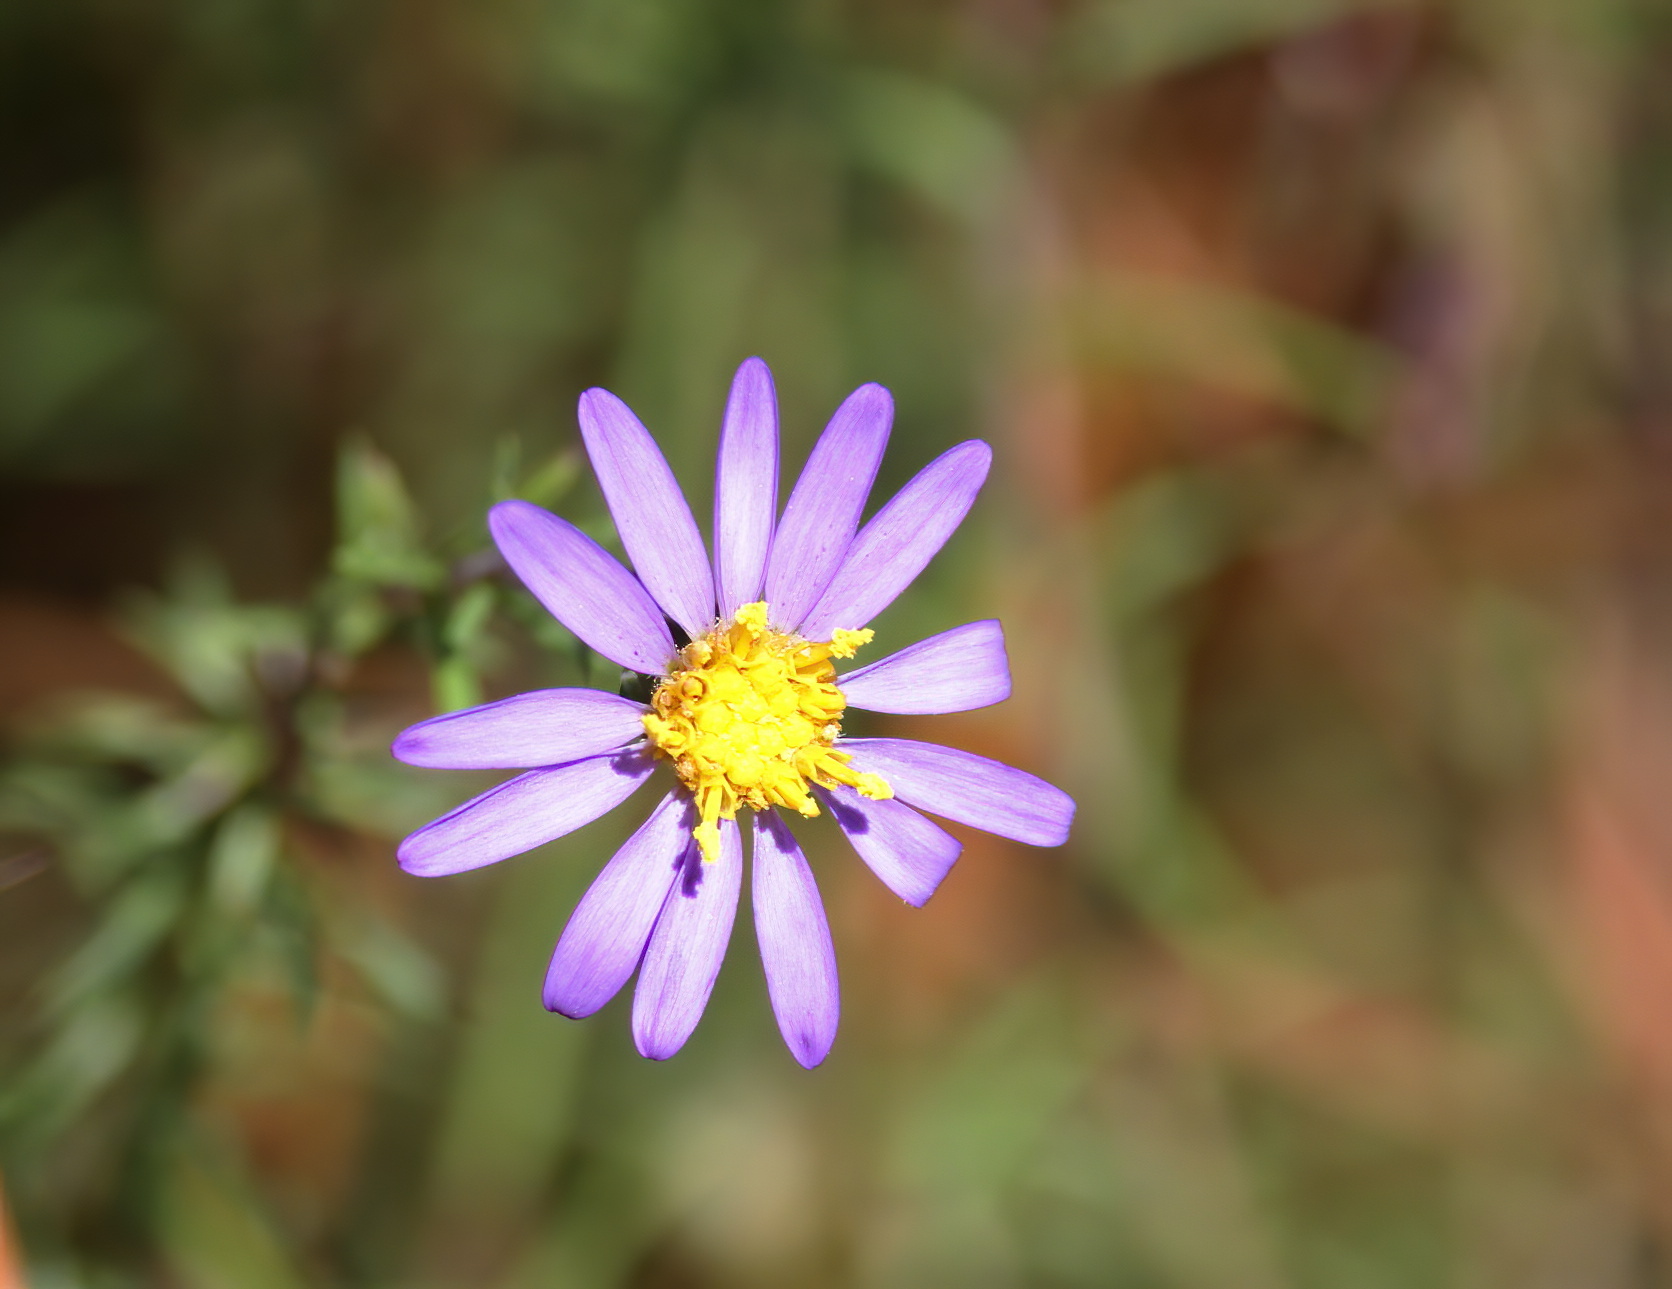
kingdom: Plantae
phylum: Tracheophyta
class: Magnoliopsida
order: Asterales
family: Asteraceae
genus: Ionactis
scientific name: Ionactis repens
